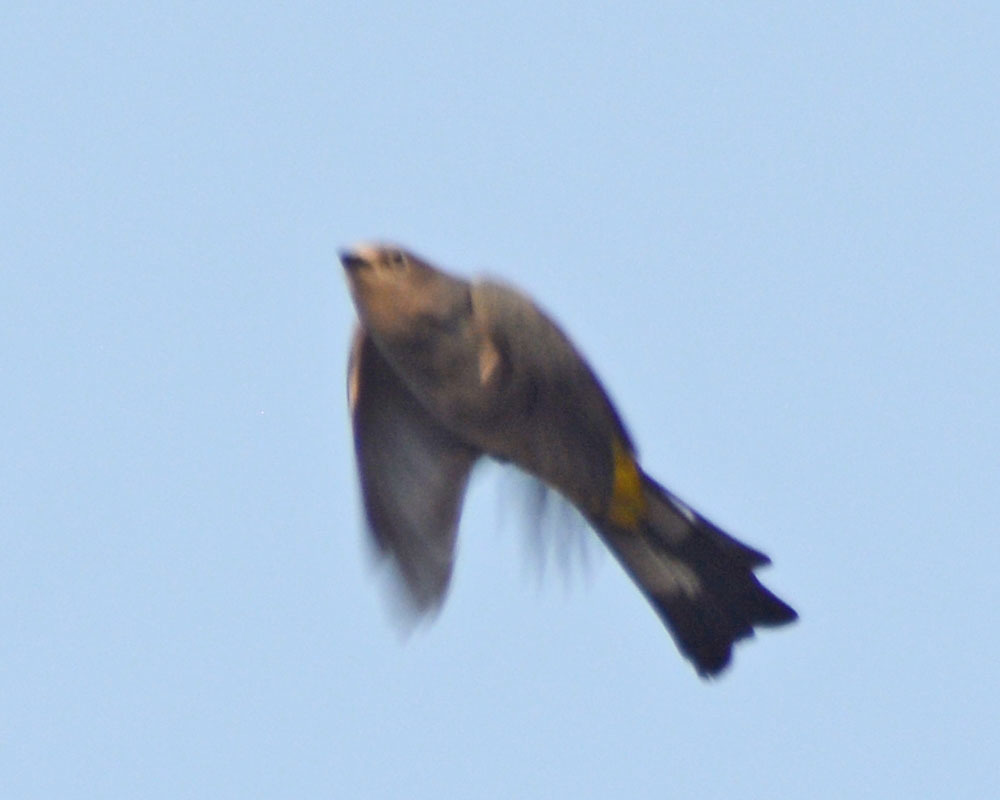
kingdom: Animalia
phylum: Chordata
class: Aves
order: Passeriformes
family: Ptilogonatidae
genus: Ptilogonys
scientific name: Ptilogonys cinereus
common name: Gray silky-flycatcher
